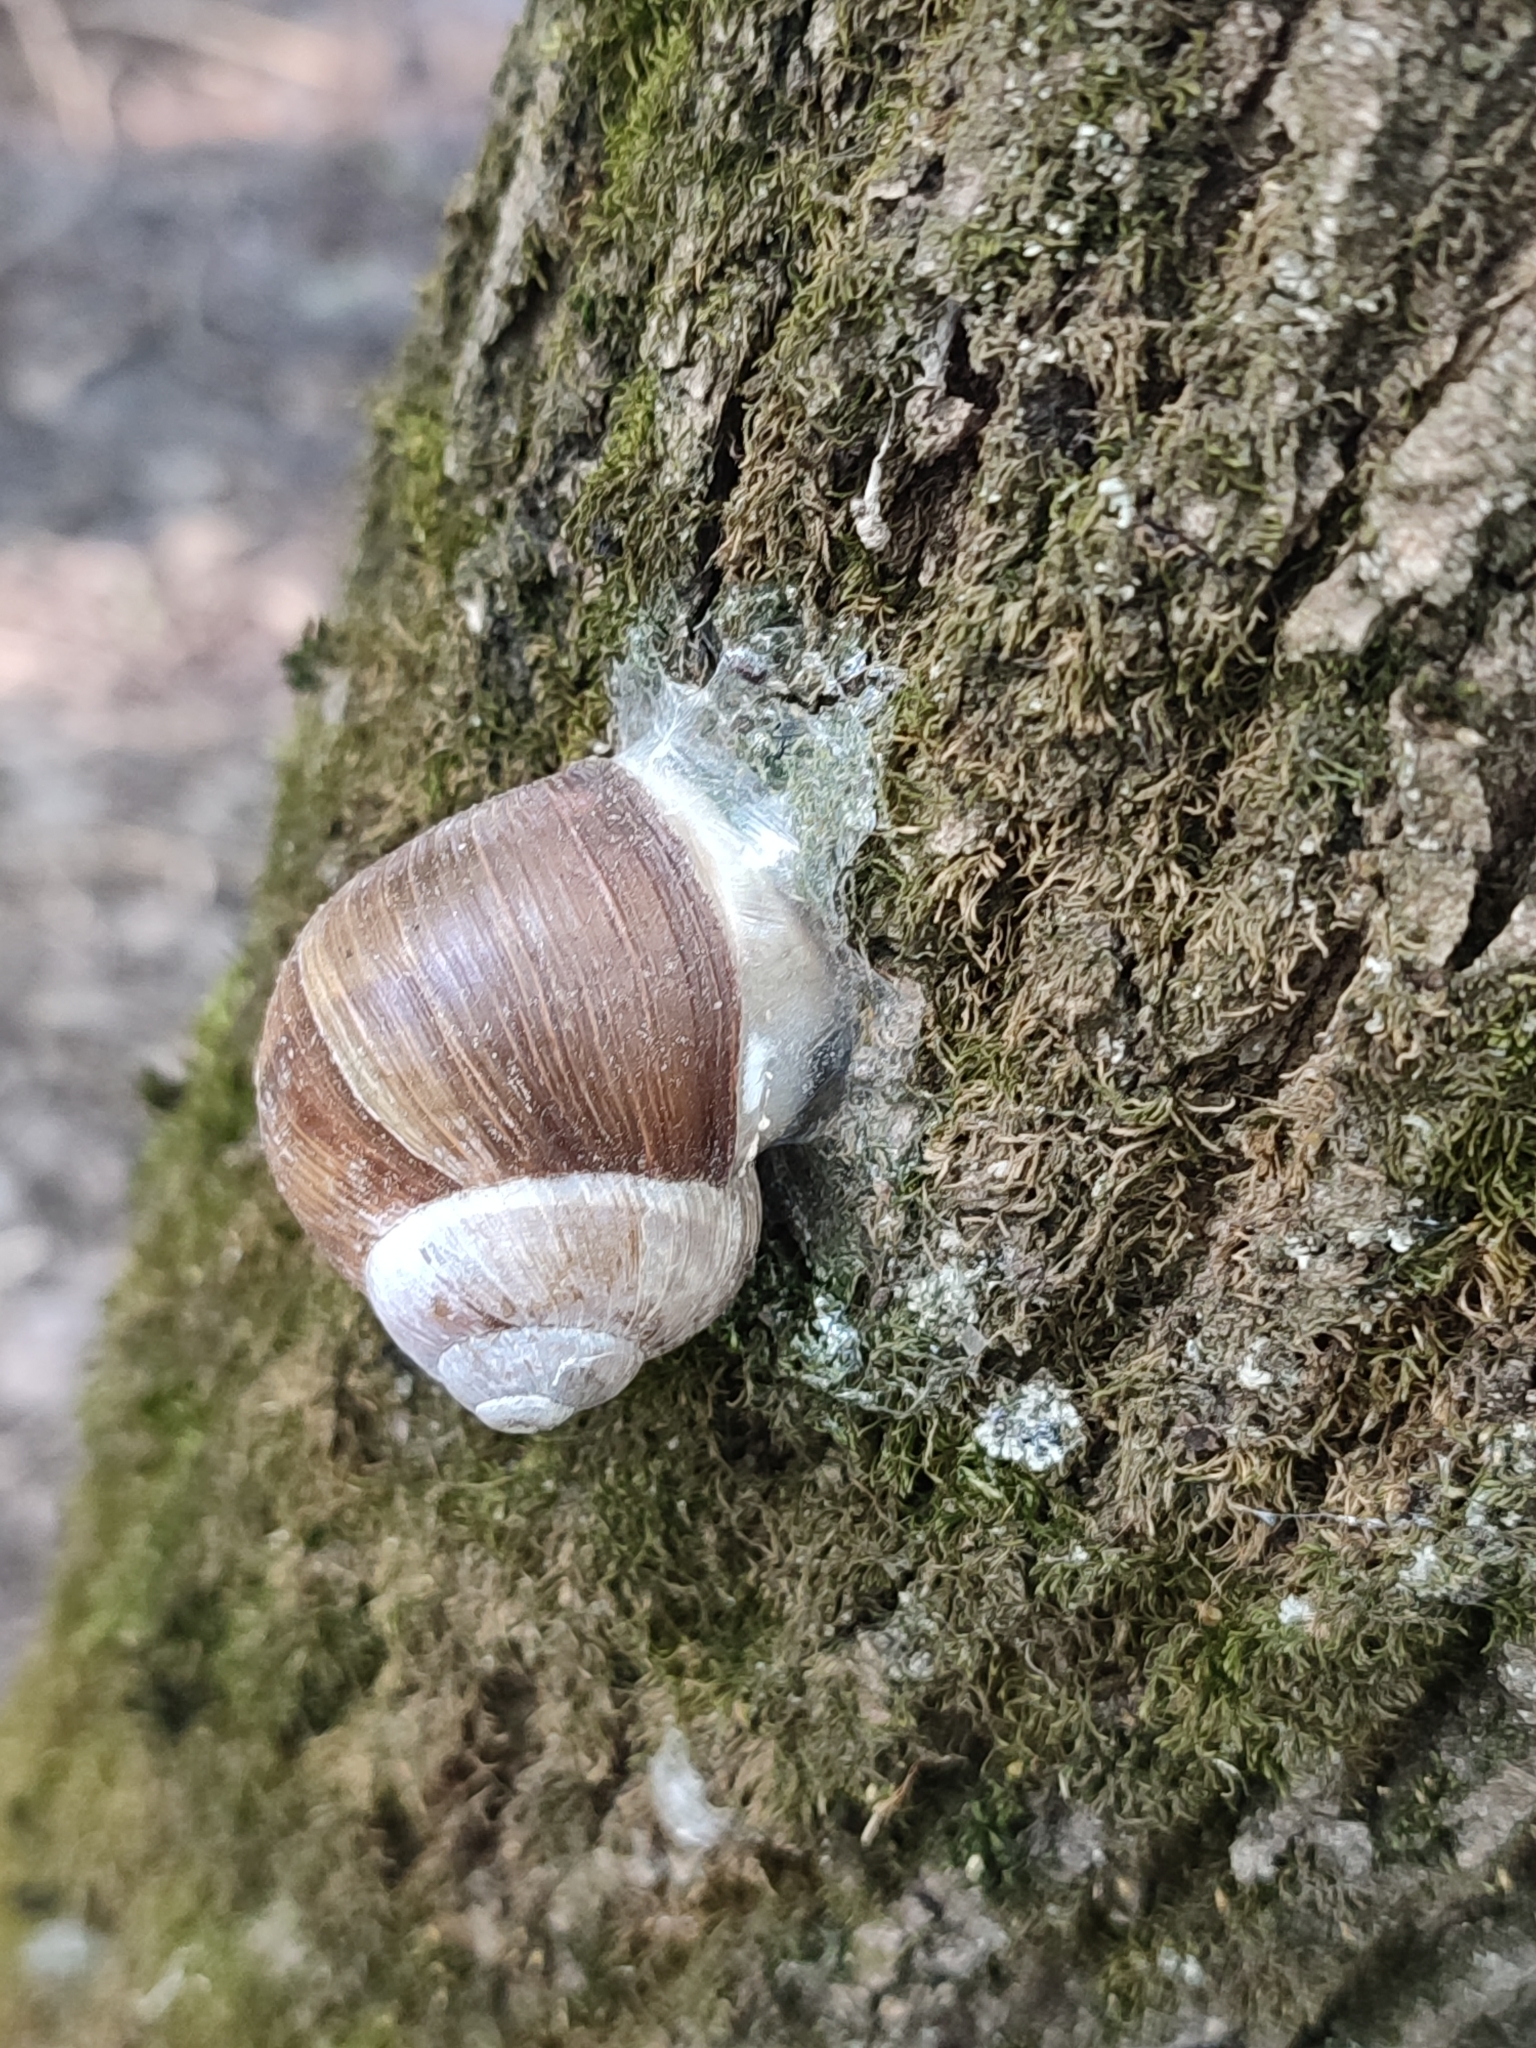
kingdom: Animalia
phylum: Mollusca
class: Gastropoda
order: Stylommatophora
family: Helicidae
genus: Helix
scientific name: Helix pomatia
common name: Roman snail
